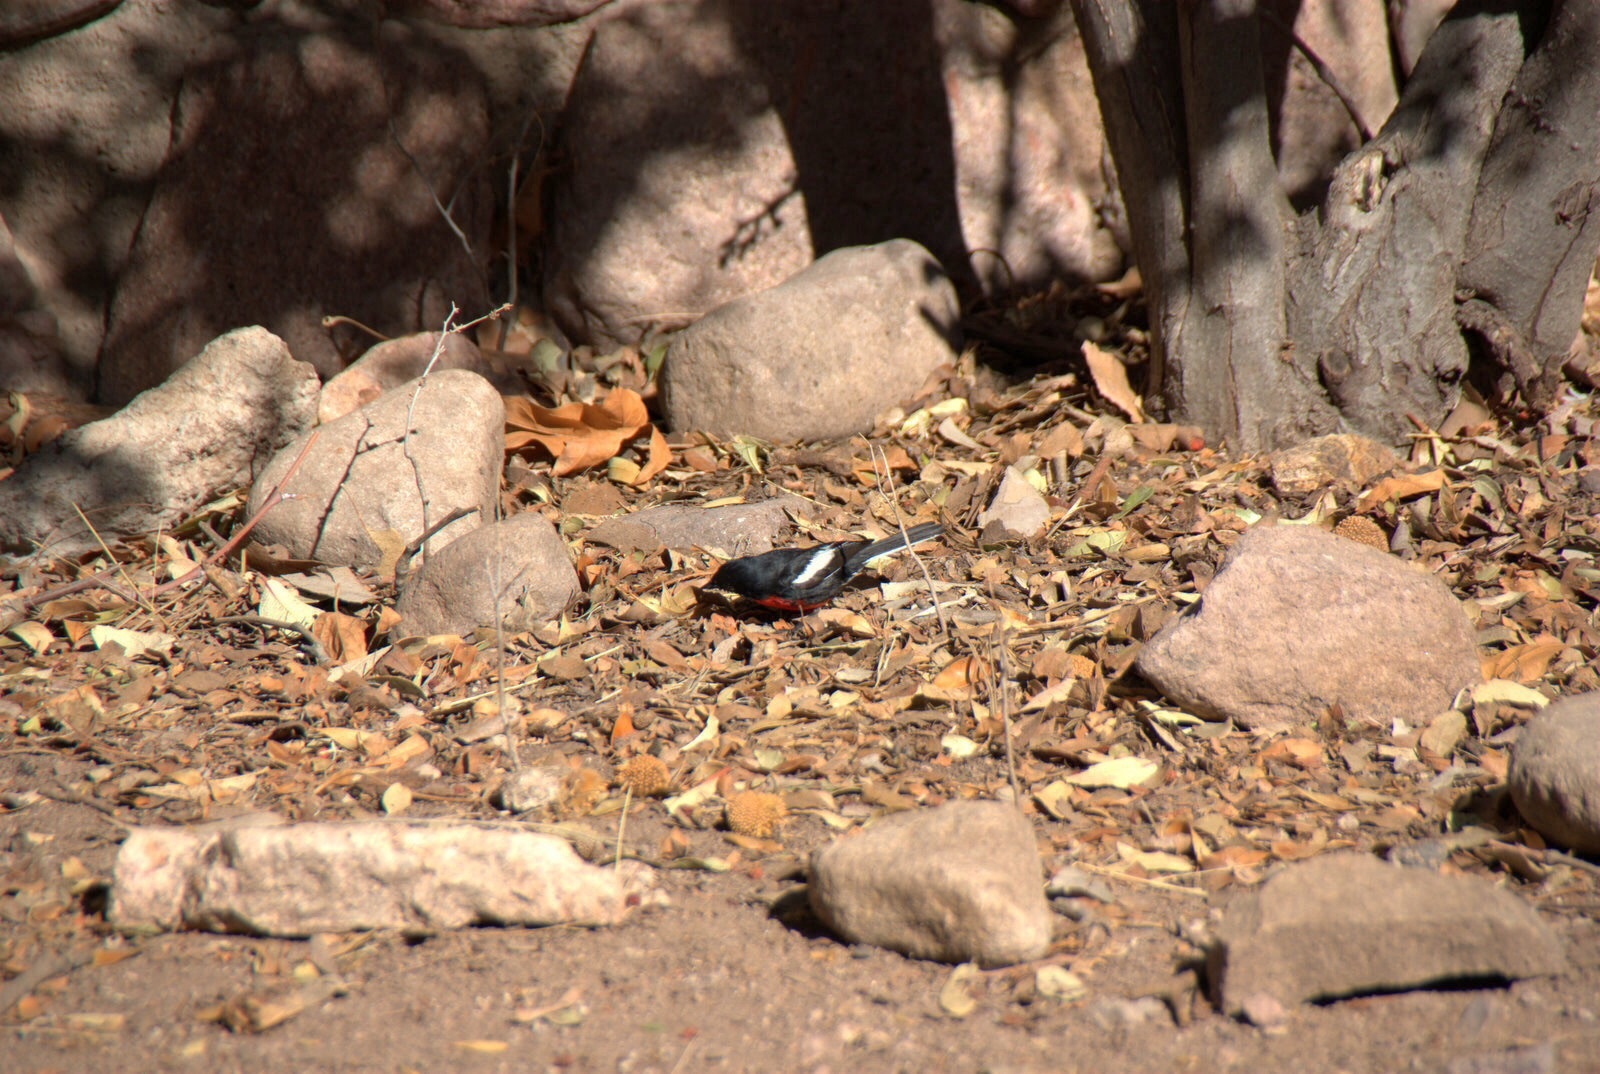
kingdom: Animalia
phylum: Chordata
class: Aves
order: Passeriformes
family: Parulidae
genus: Myioborus
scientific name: Myioborus pictus
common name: Painted whitestart
